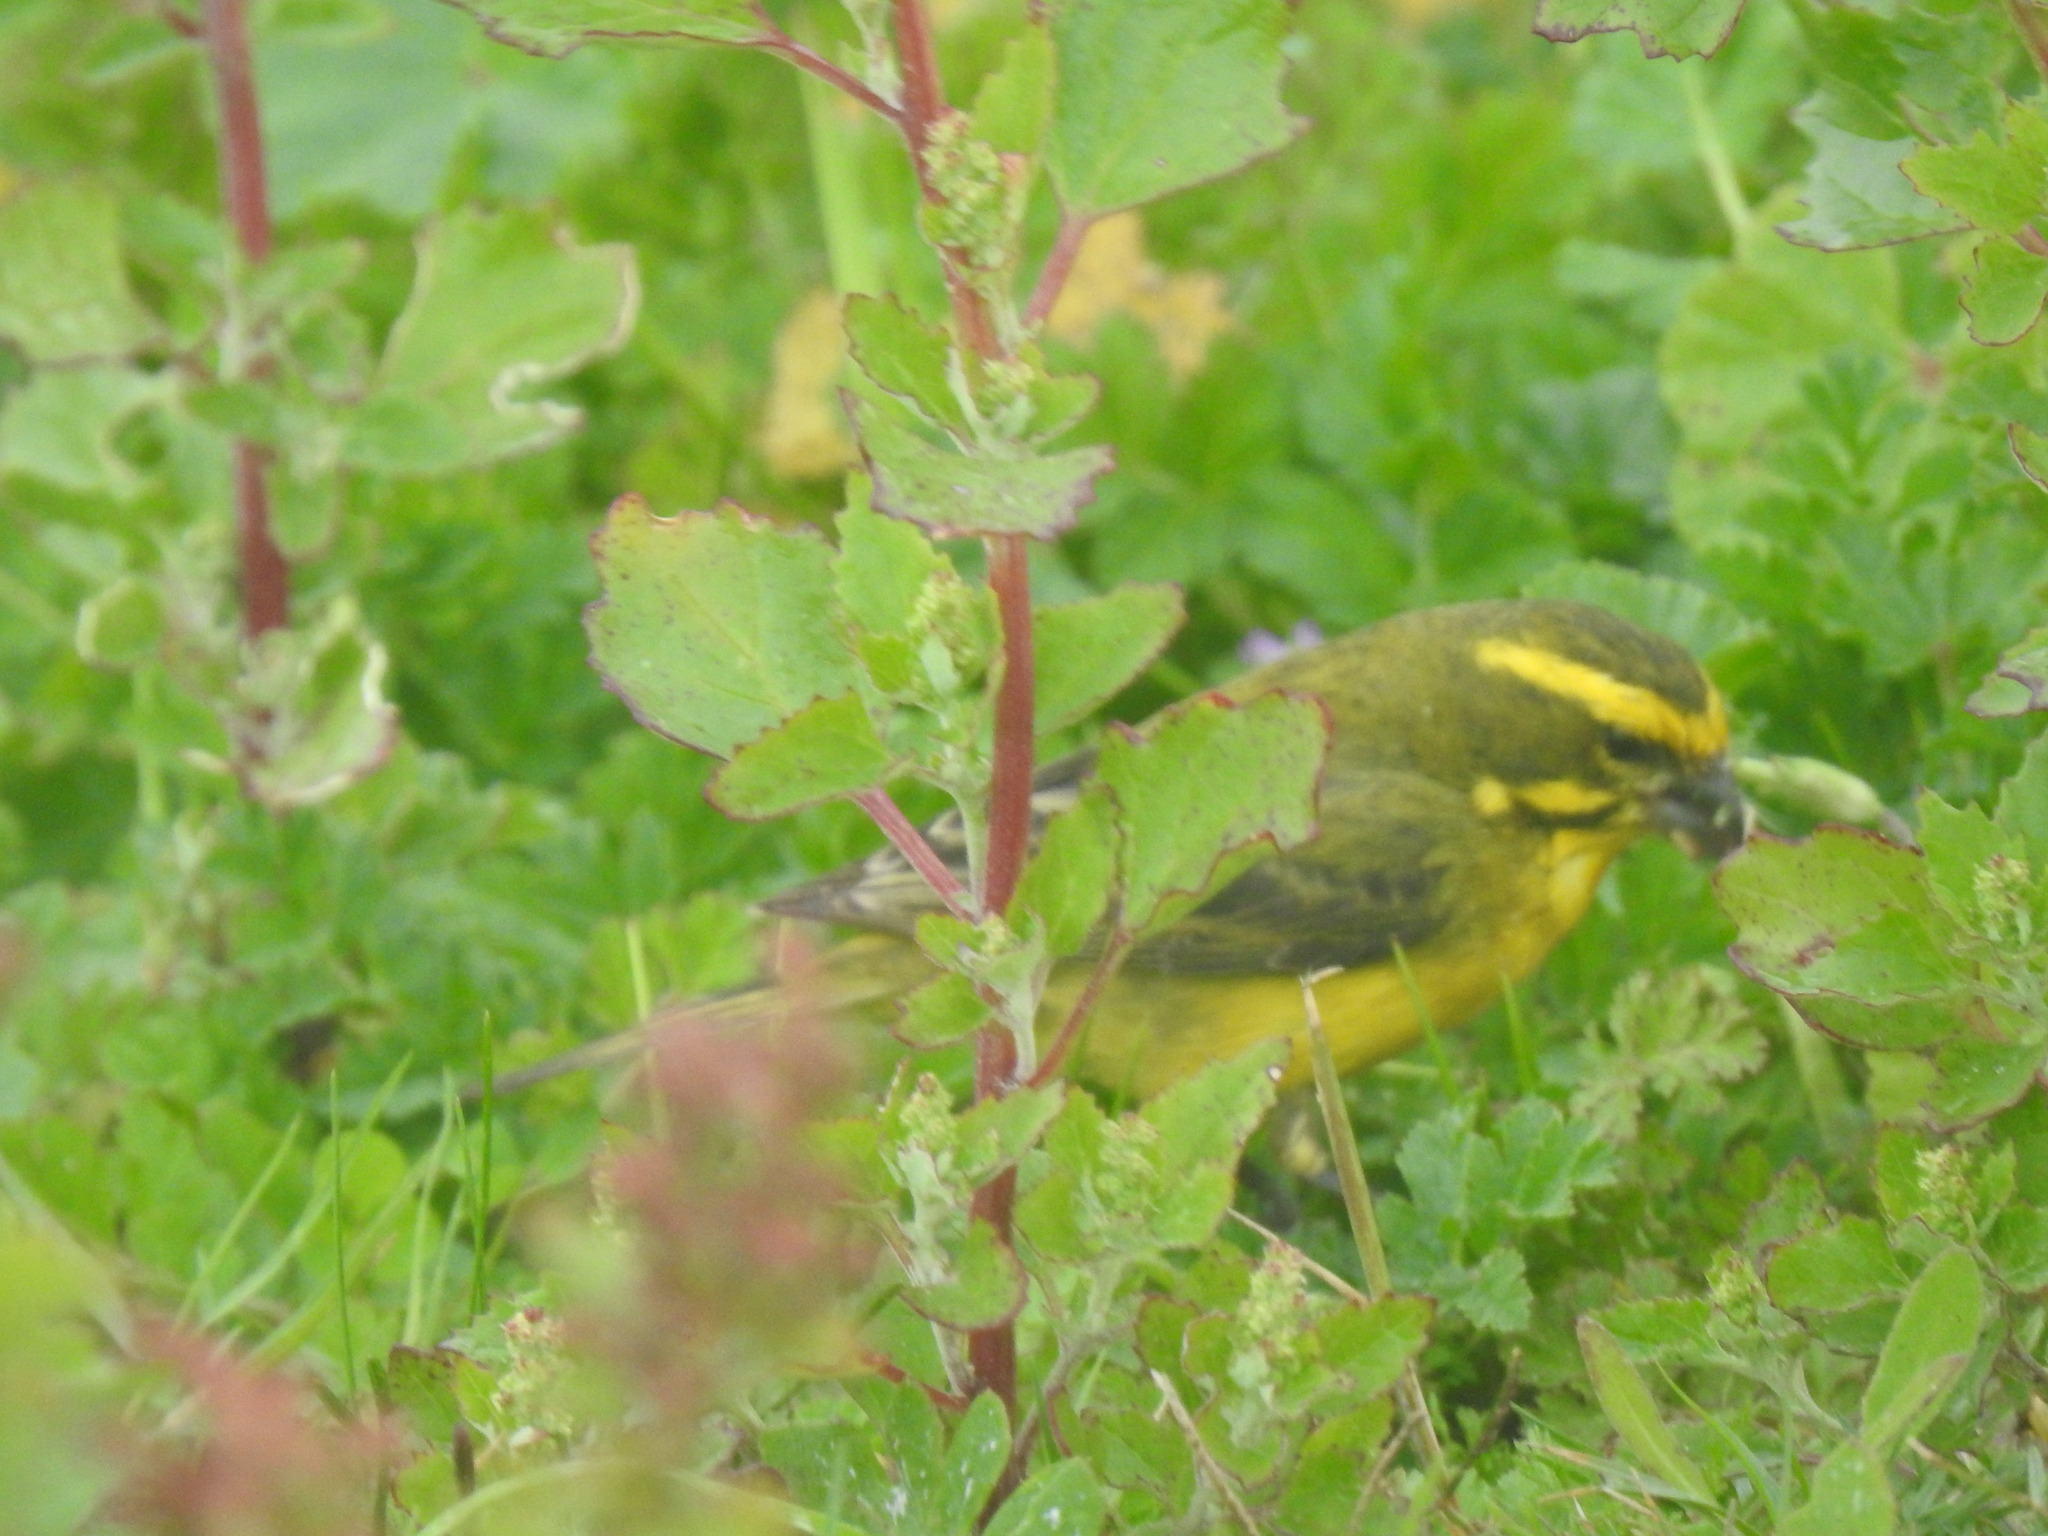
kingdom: Animalia
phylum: Chordata
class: Aves
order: Passeriformes
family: Fringillidae
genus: Crithagra
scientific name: Crithagra flaviventris
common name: Yellow canary
